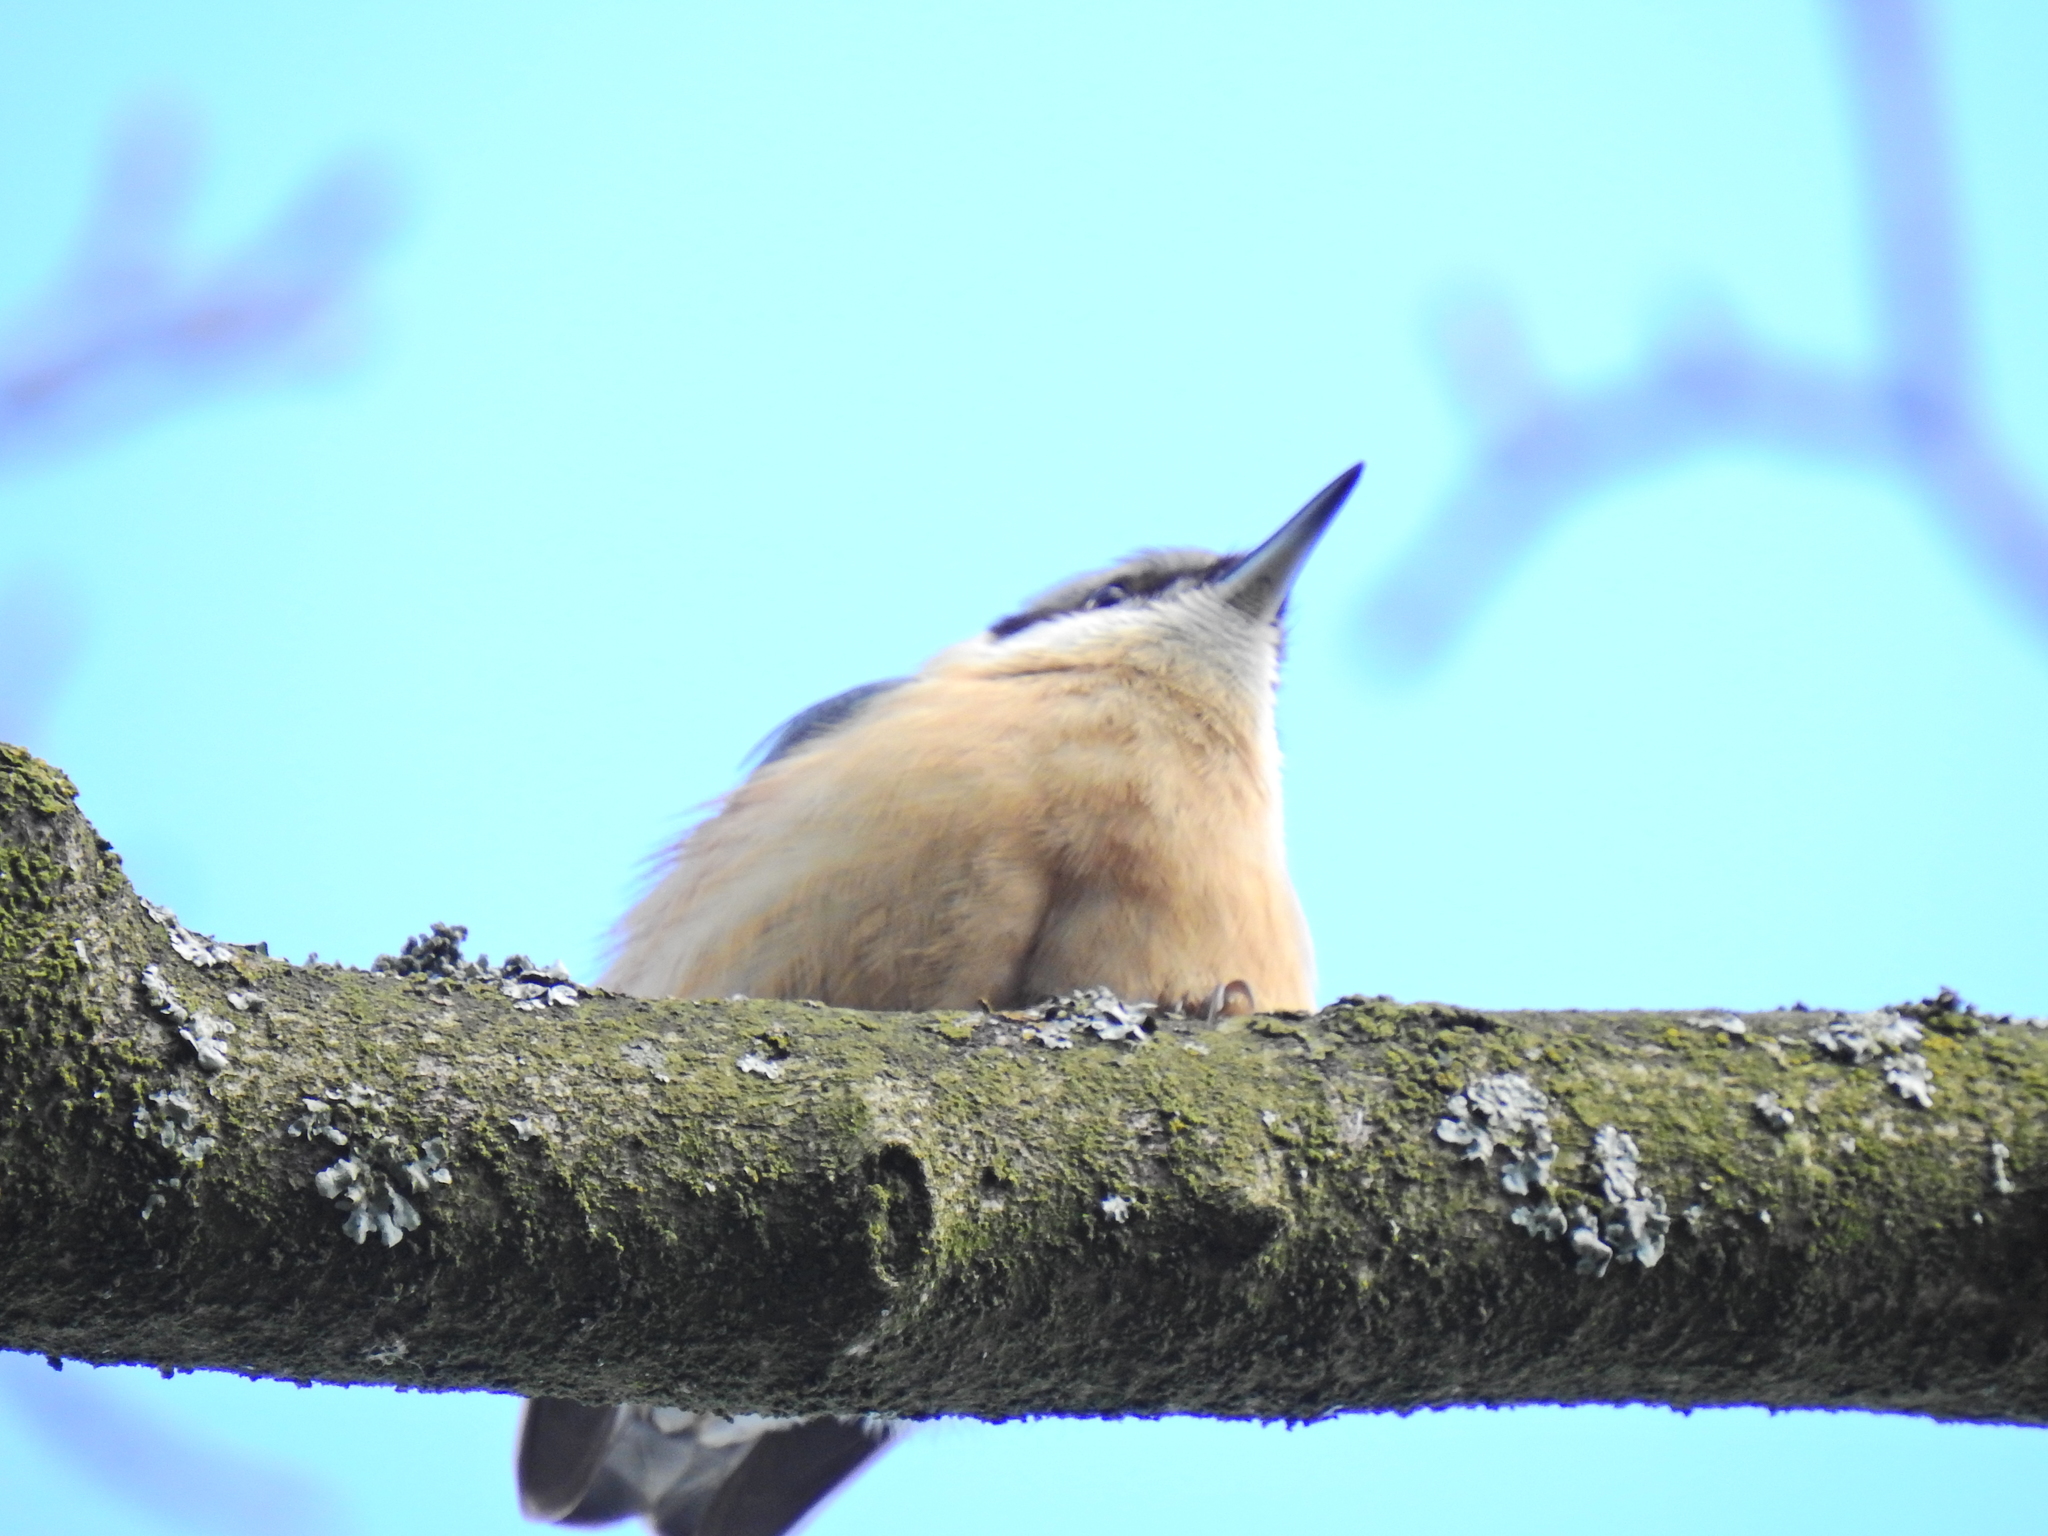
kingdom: Animalia
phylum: Chordata
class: Aves
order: Passeriformes
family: Sittidae
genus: Sitta
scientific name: Sitta europaea
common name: Eurasian nuthatch
